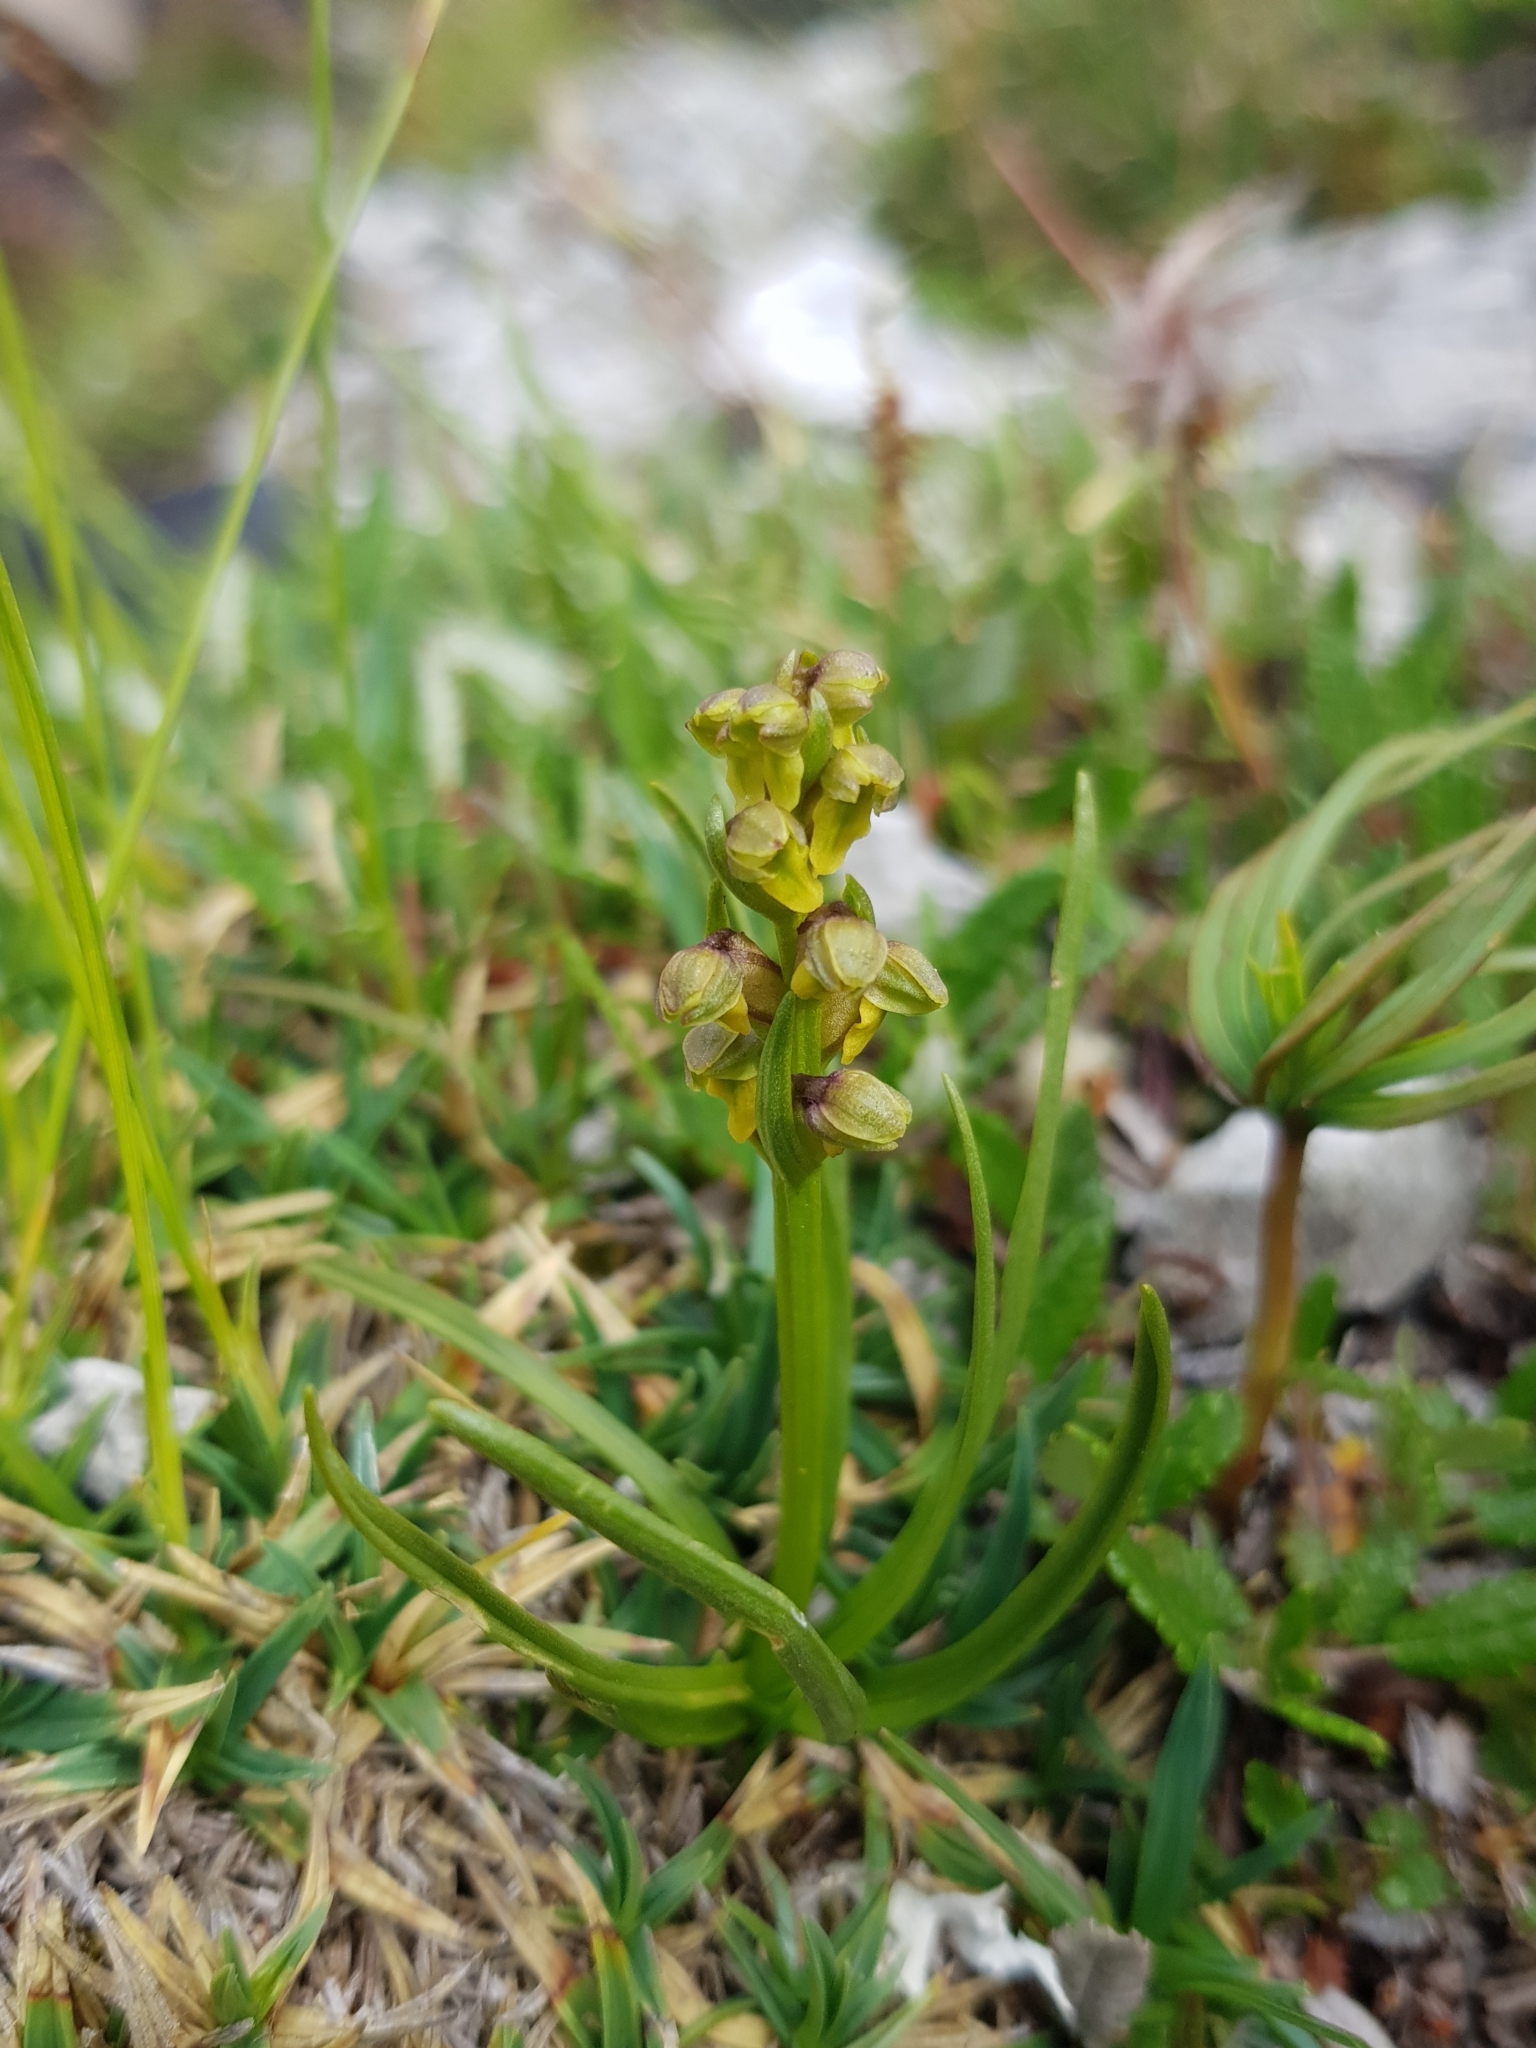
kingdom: Plantae
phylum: Tracheophyta
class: Liliopsida
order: Asparagales
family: Orchidaceae
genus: Chamorchis
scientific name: Chamorchis alpina
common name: Alpine chamorchis
